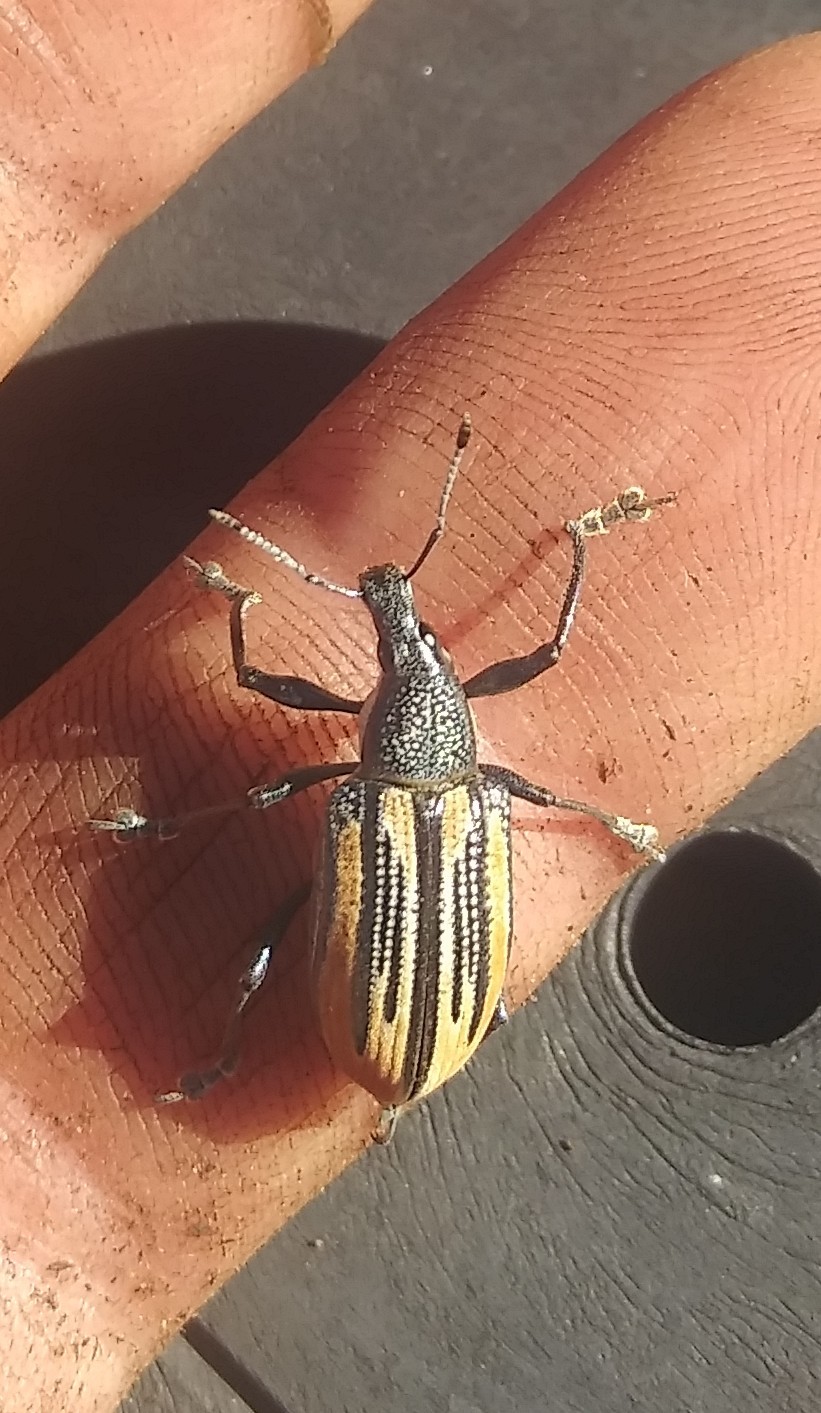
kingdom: Animalia
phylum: Arthropoda
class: Insecta
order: Coleoptera
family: Curculionidae
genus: Diaprepes
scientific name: Diaprepes abbreviatus
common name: Root weevil
